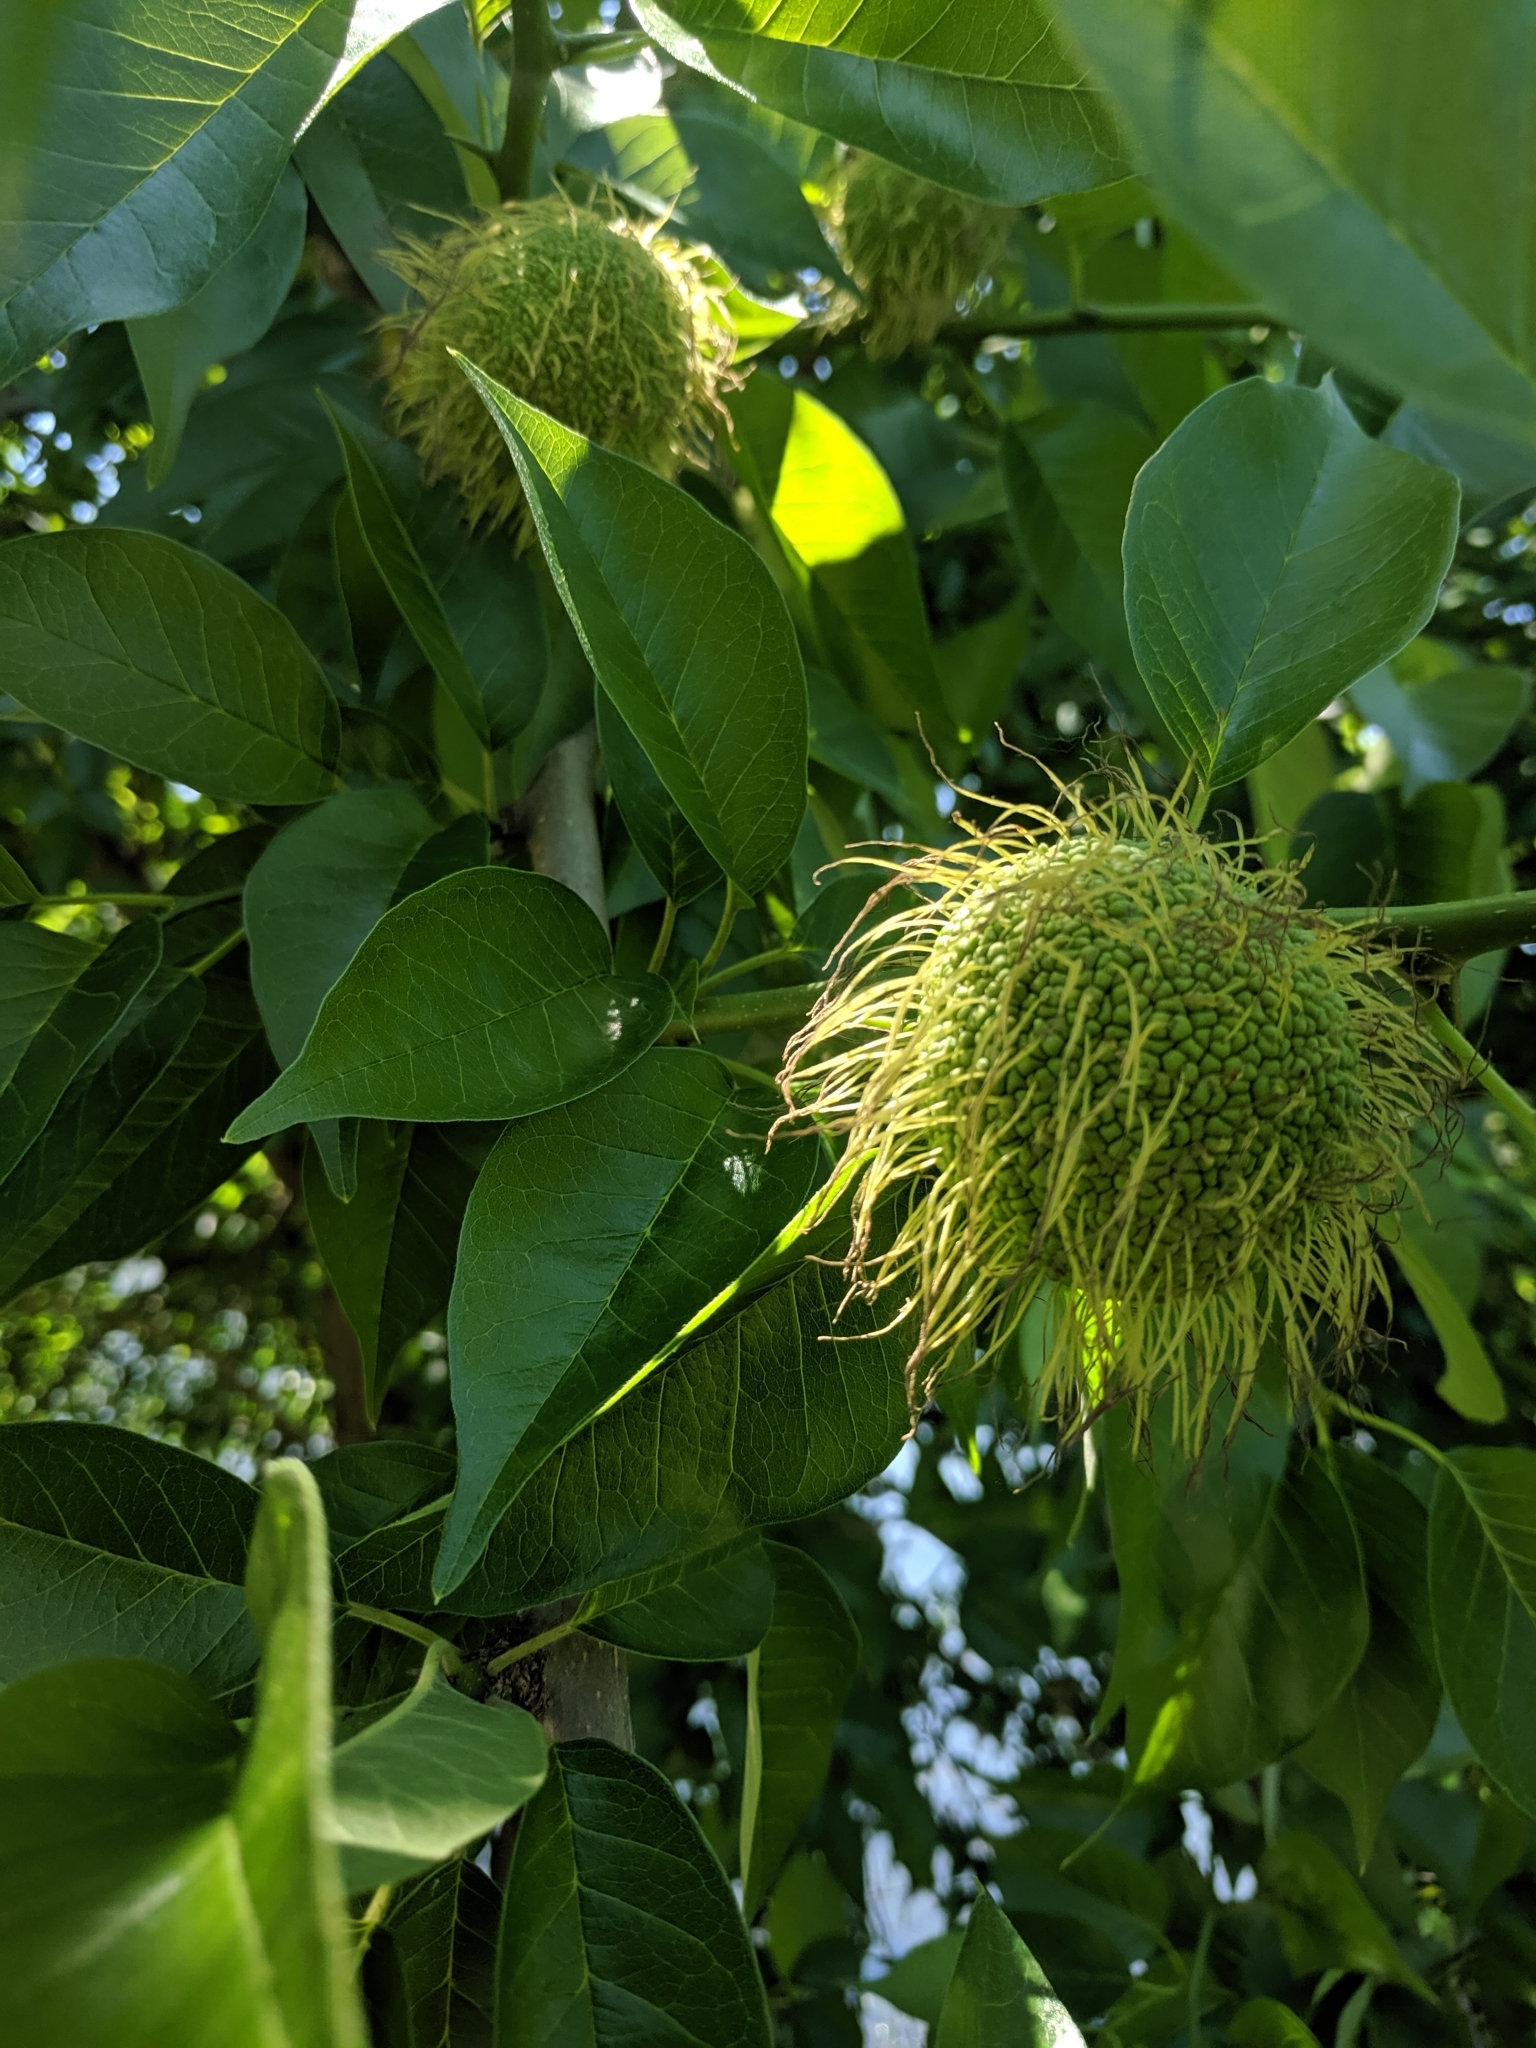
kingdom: Plantae
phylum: Tracheophyta
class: Magnoliopsida
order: Rosales
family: Moraceae
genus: Maclura
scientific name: Maclura pomifera
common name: Osage-orange
